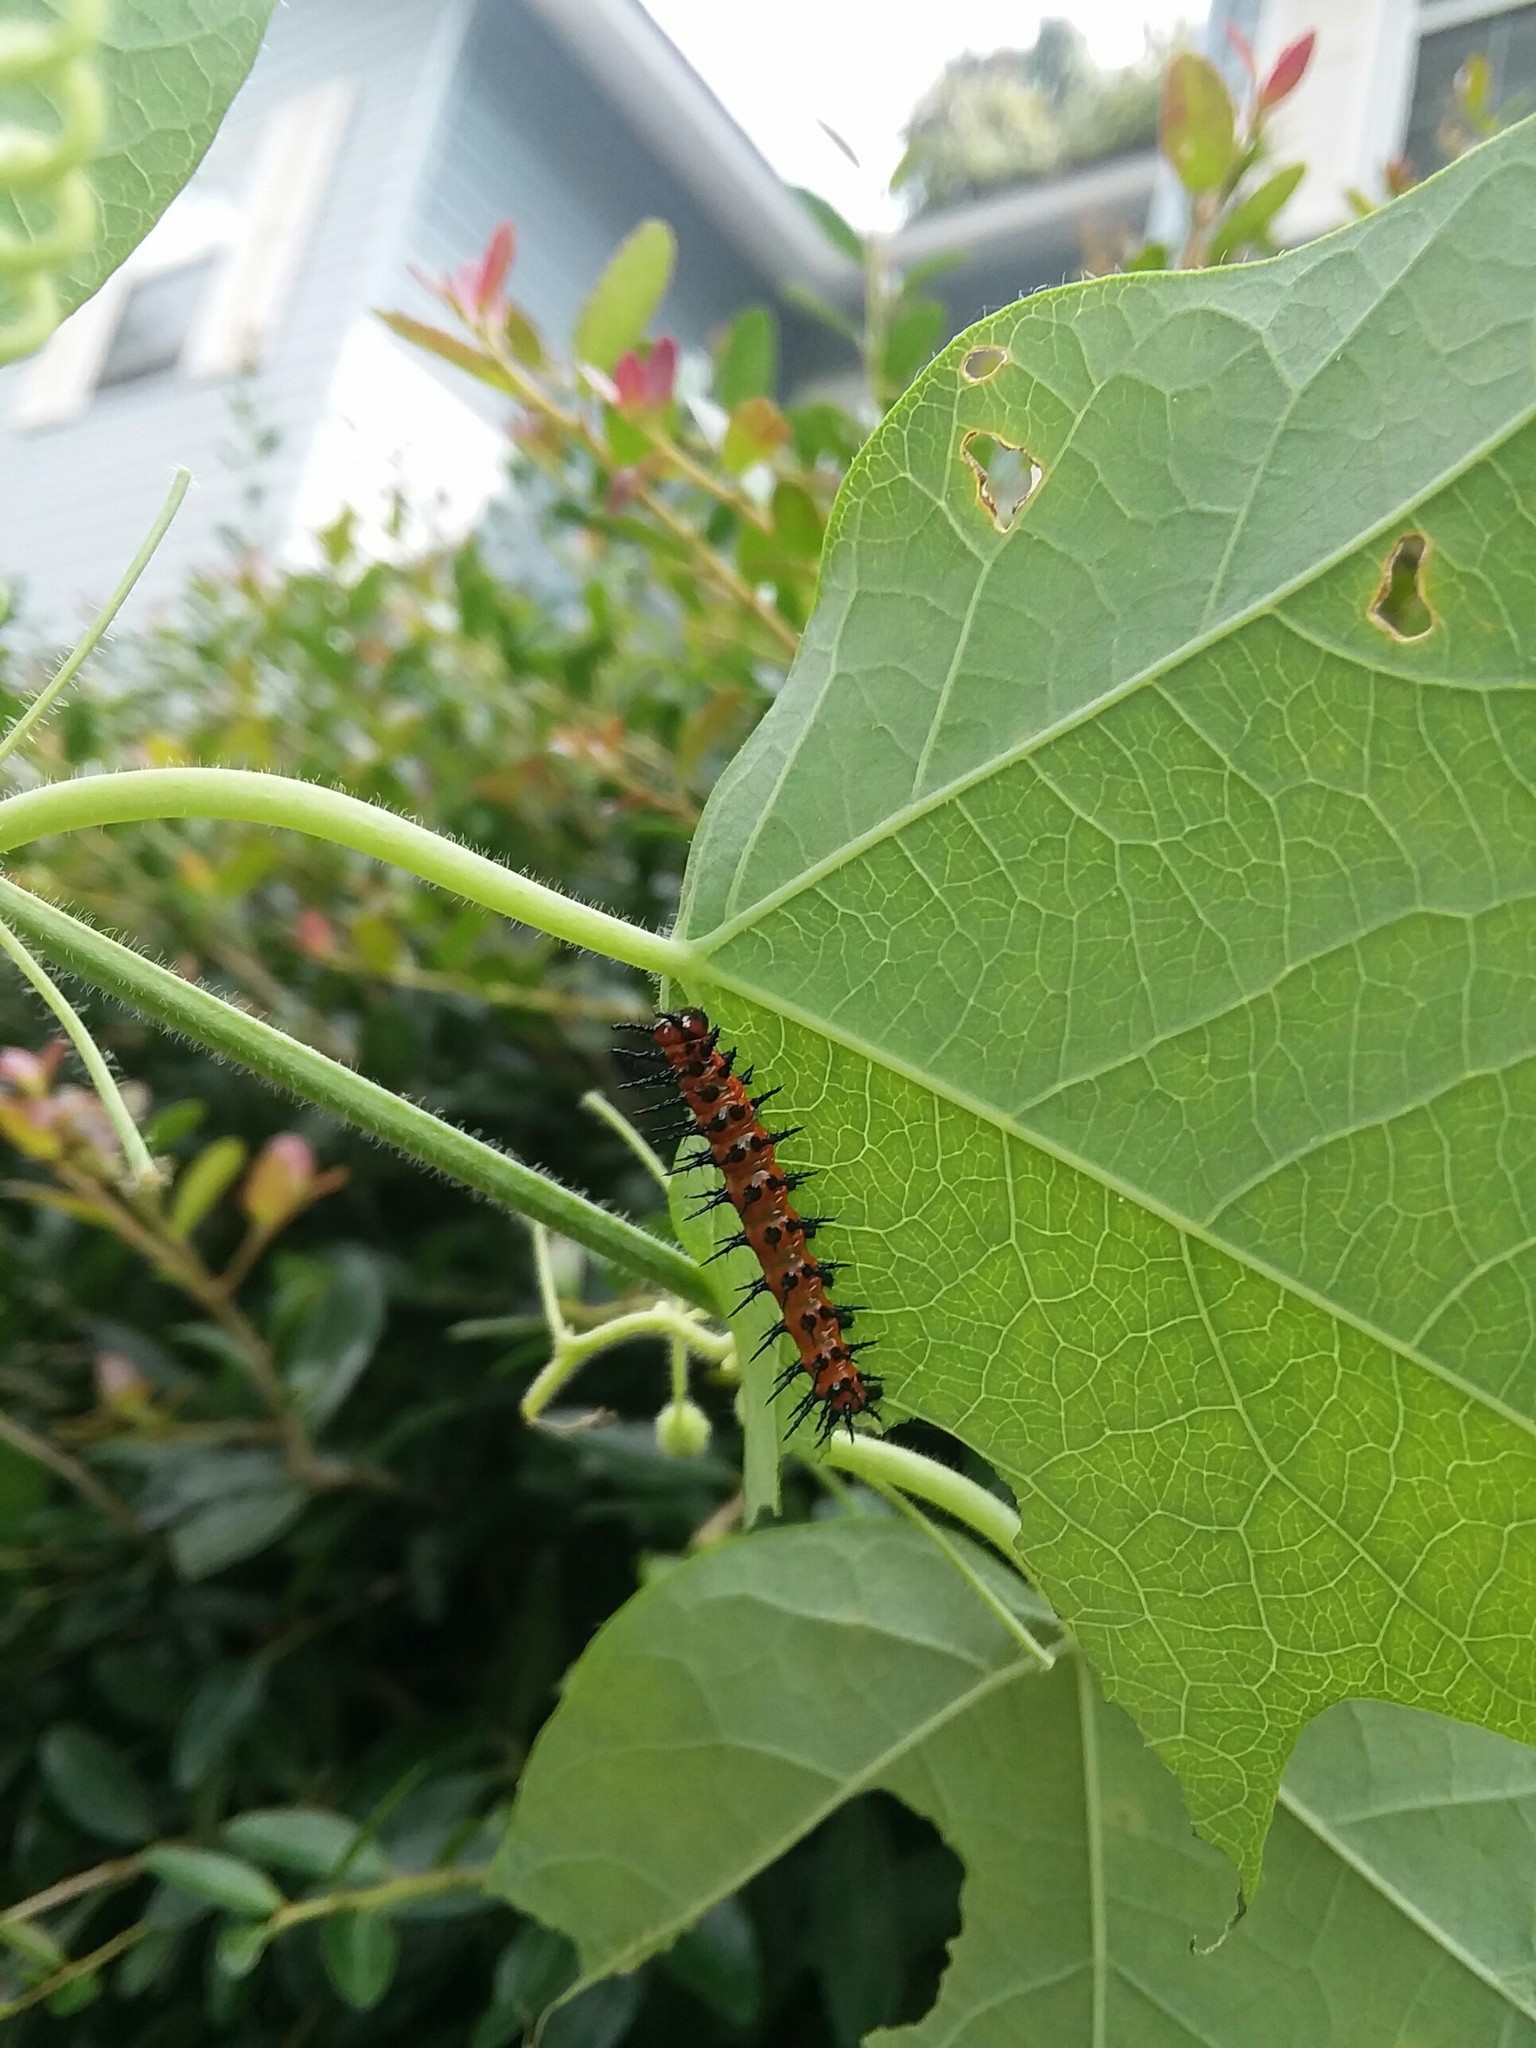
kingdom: Animalia
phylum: Arthropoda
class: Insecta
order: Lepidoptera
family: Nymphalidae
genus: Dione
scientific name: Dione vanillae
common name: Gulf fritillary
